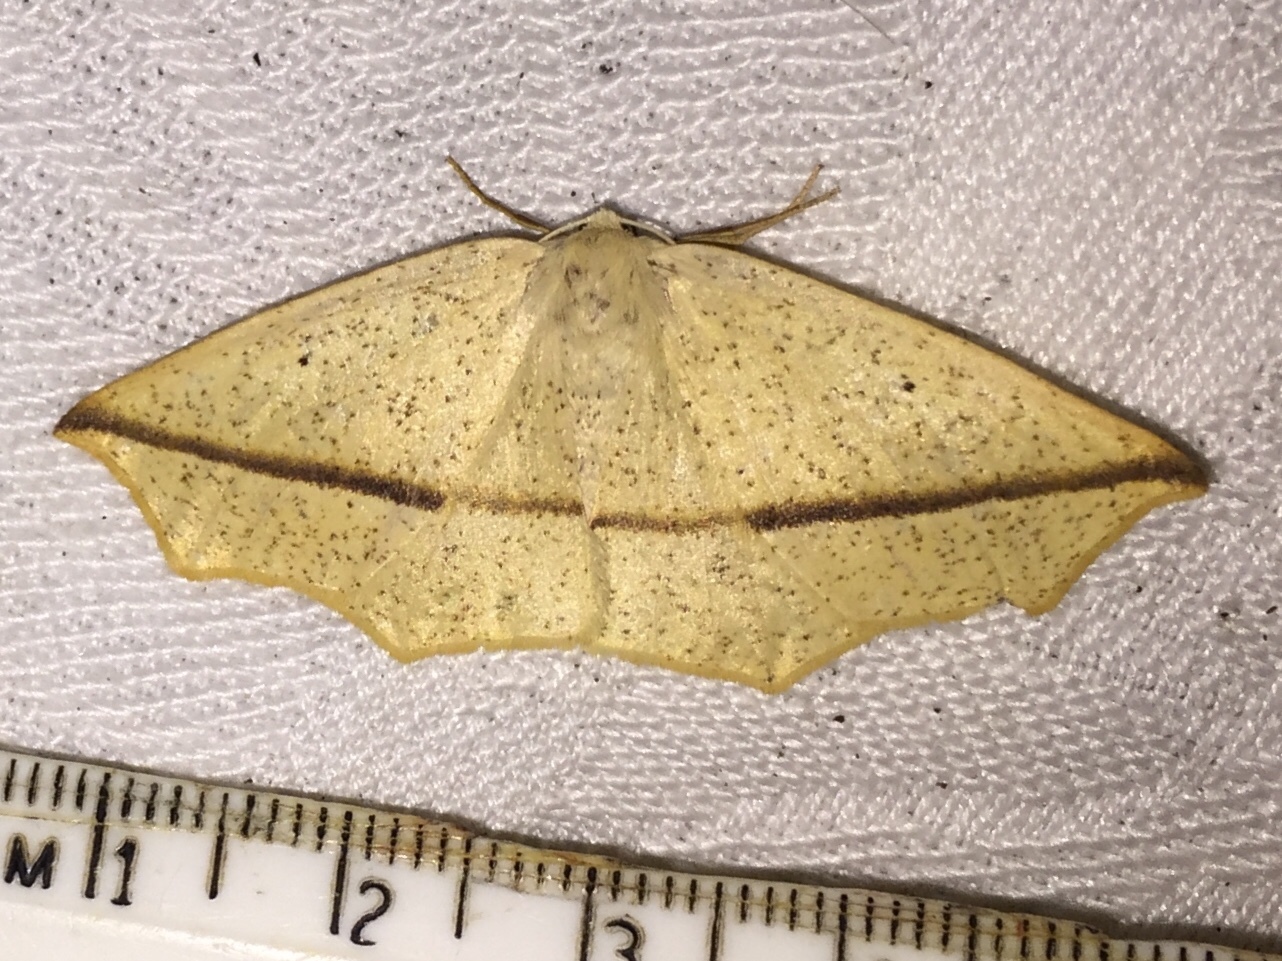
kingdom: Animalia
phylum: Arthropoda
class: Insecta
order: Lepidoptera
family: Geometridae
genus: Tetracis
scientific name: Tetracis crocallata
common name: Yellow slant-line
